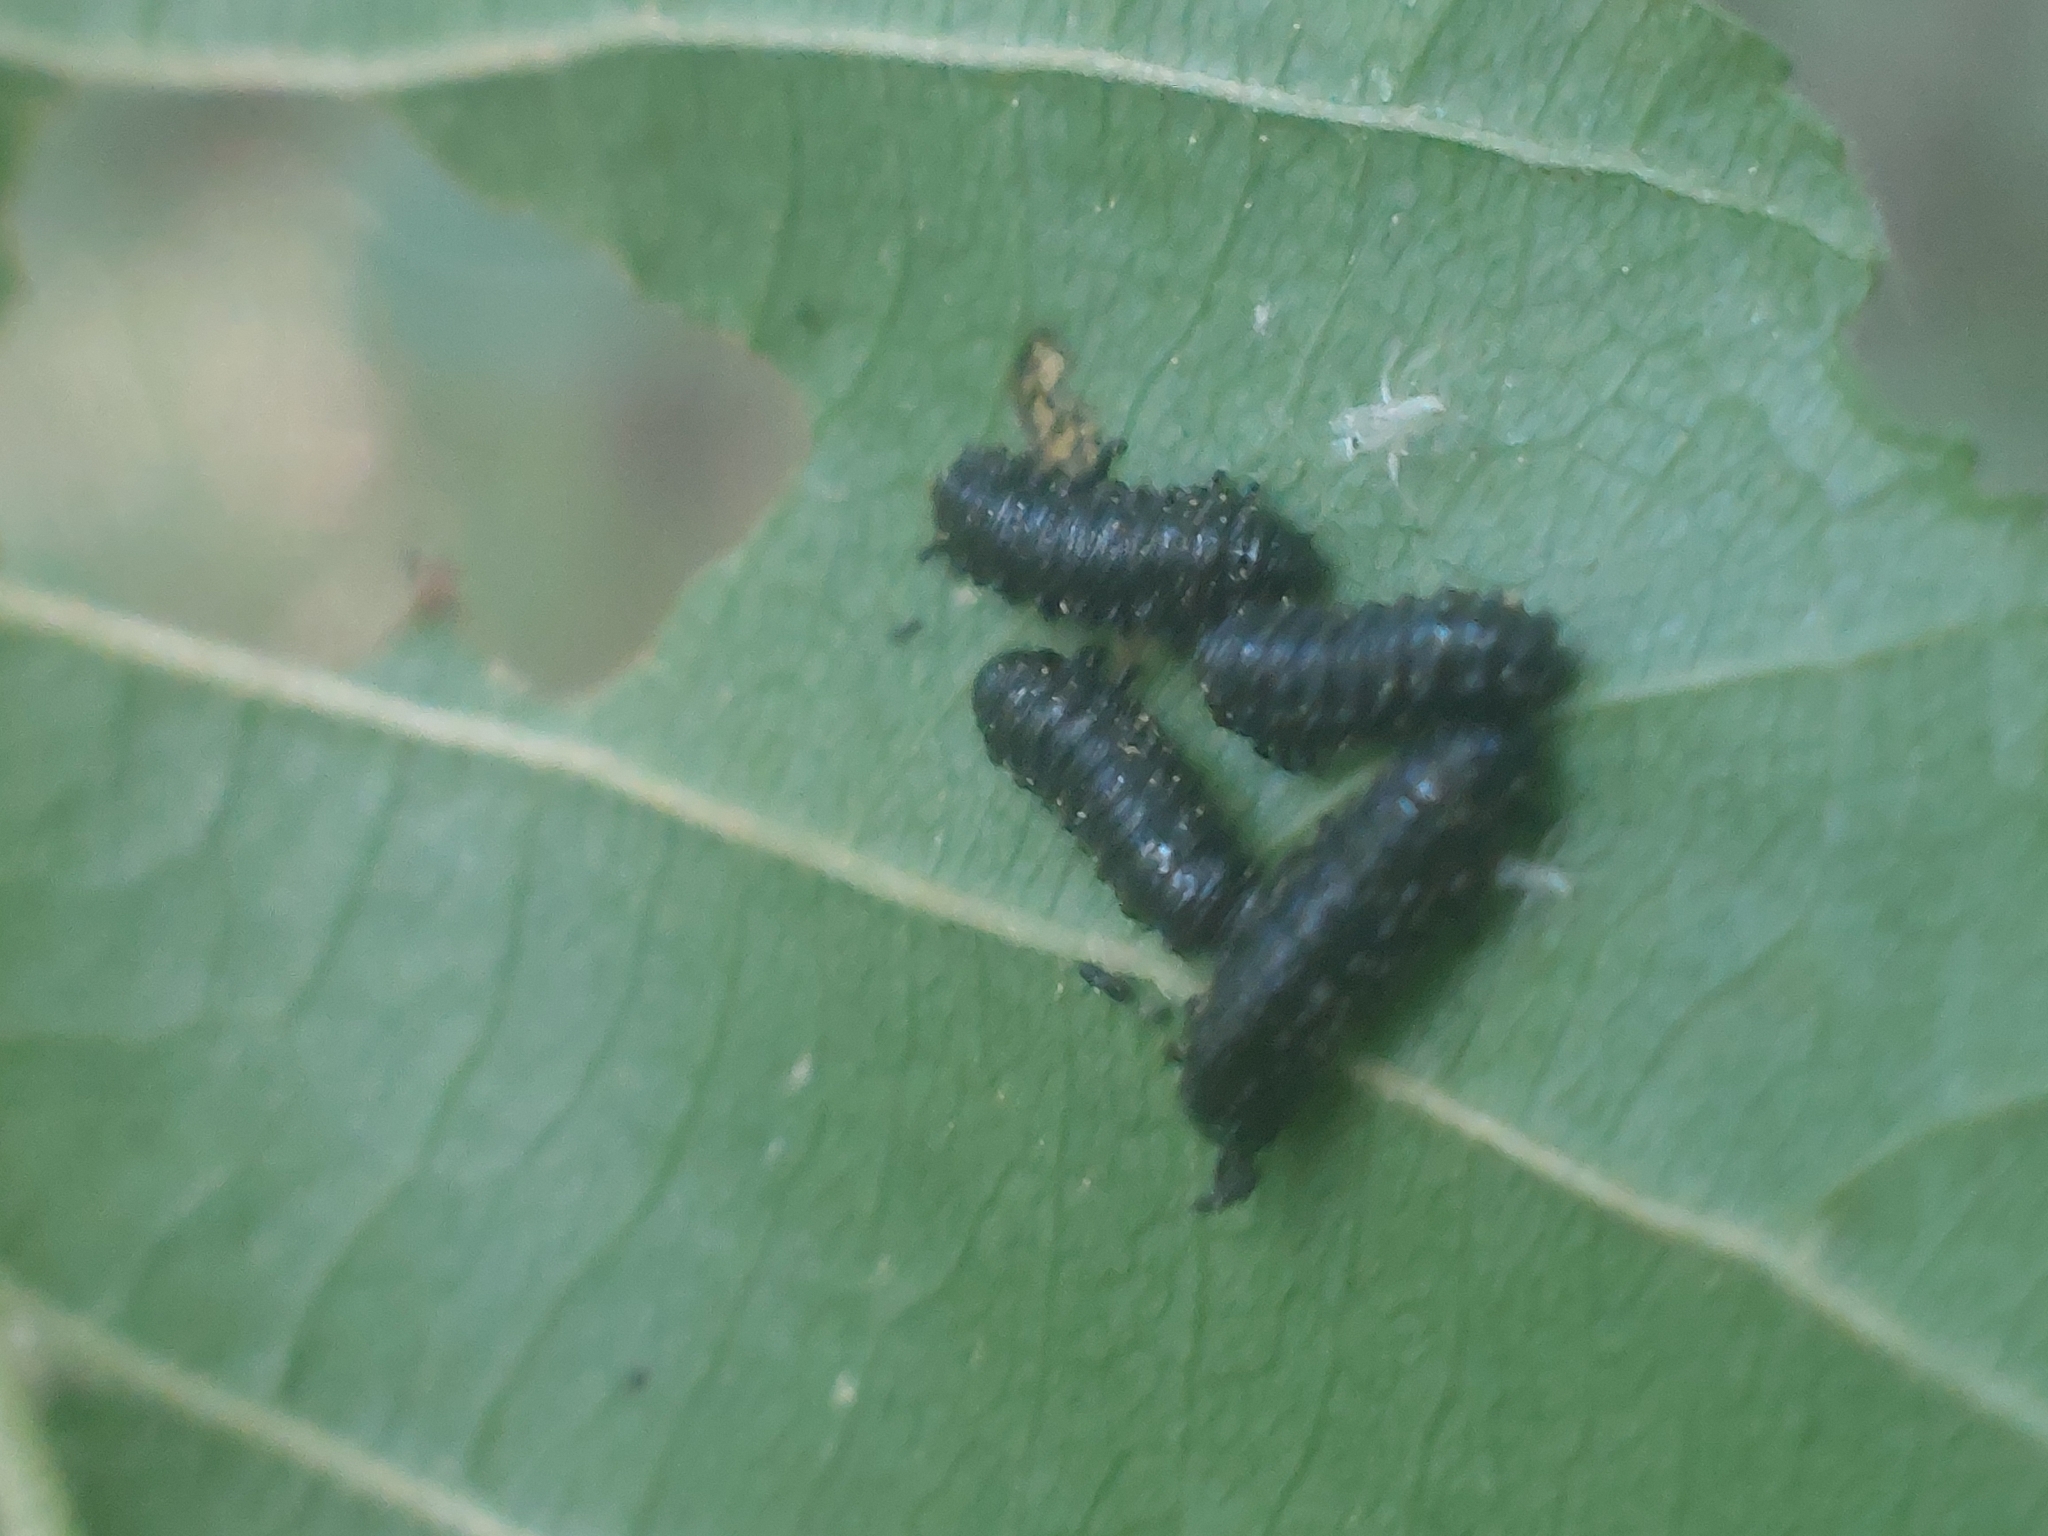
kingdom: Animalia
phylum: Arthropoda
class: Insecta
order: Coleoptera
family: Chrysomelidae
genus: Agelastica
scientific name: Agelastica alni
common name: Alder leaf beetle
